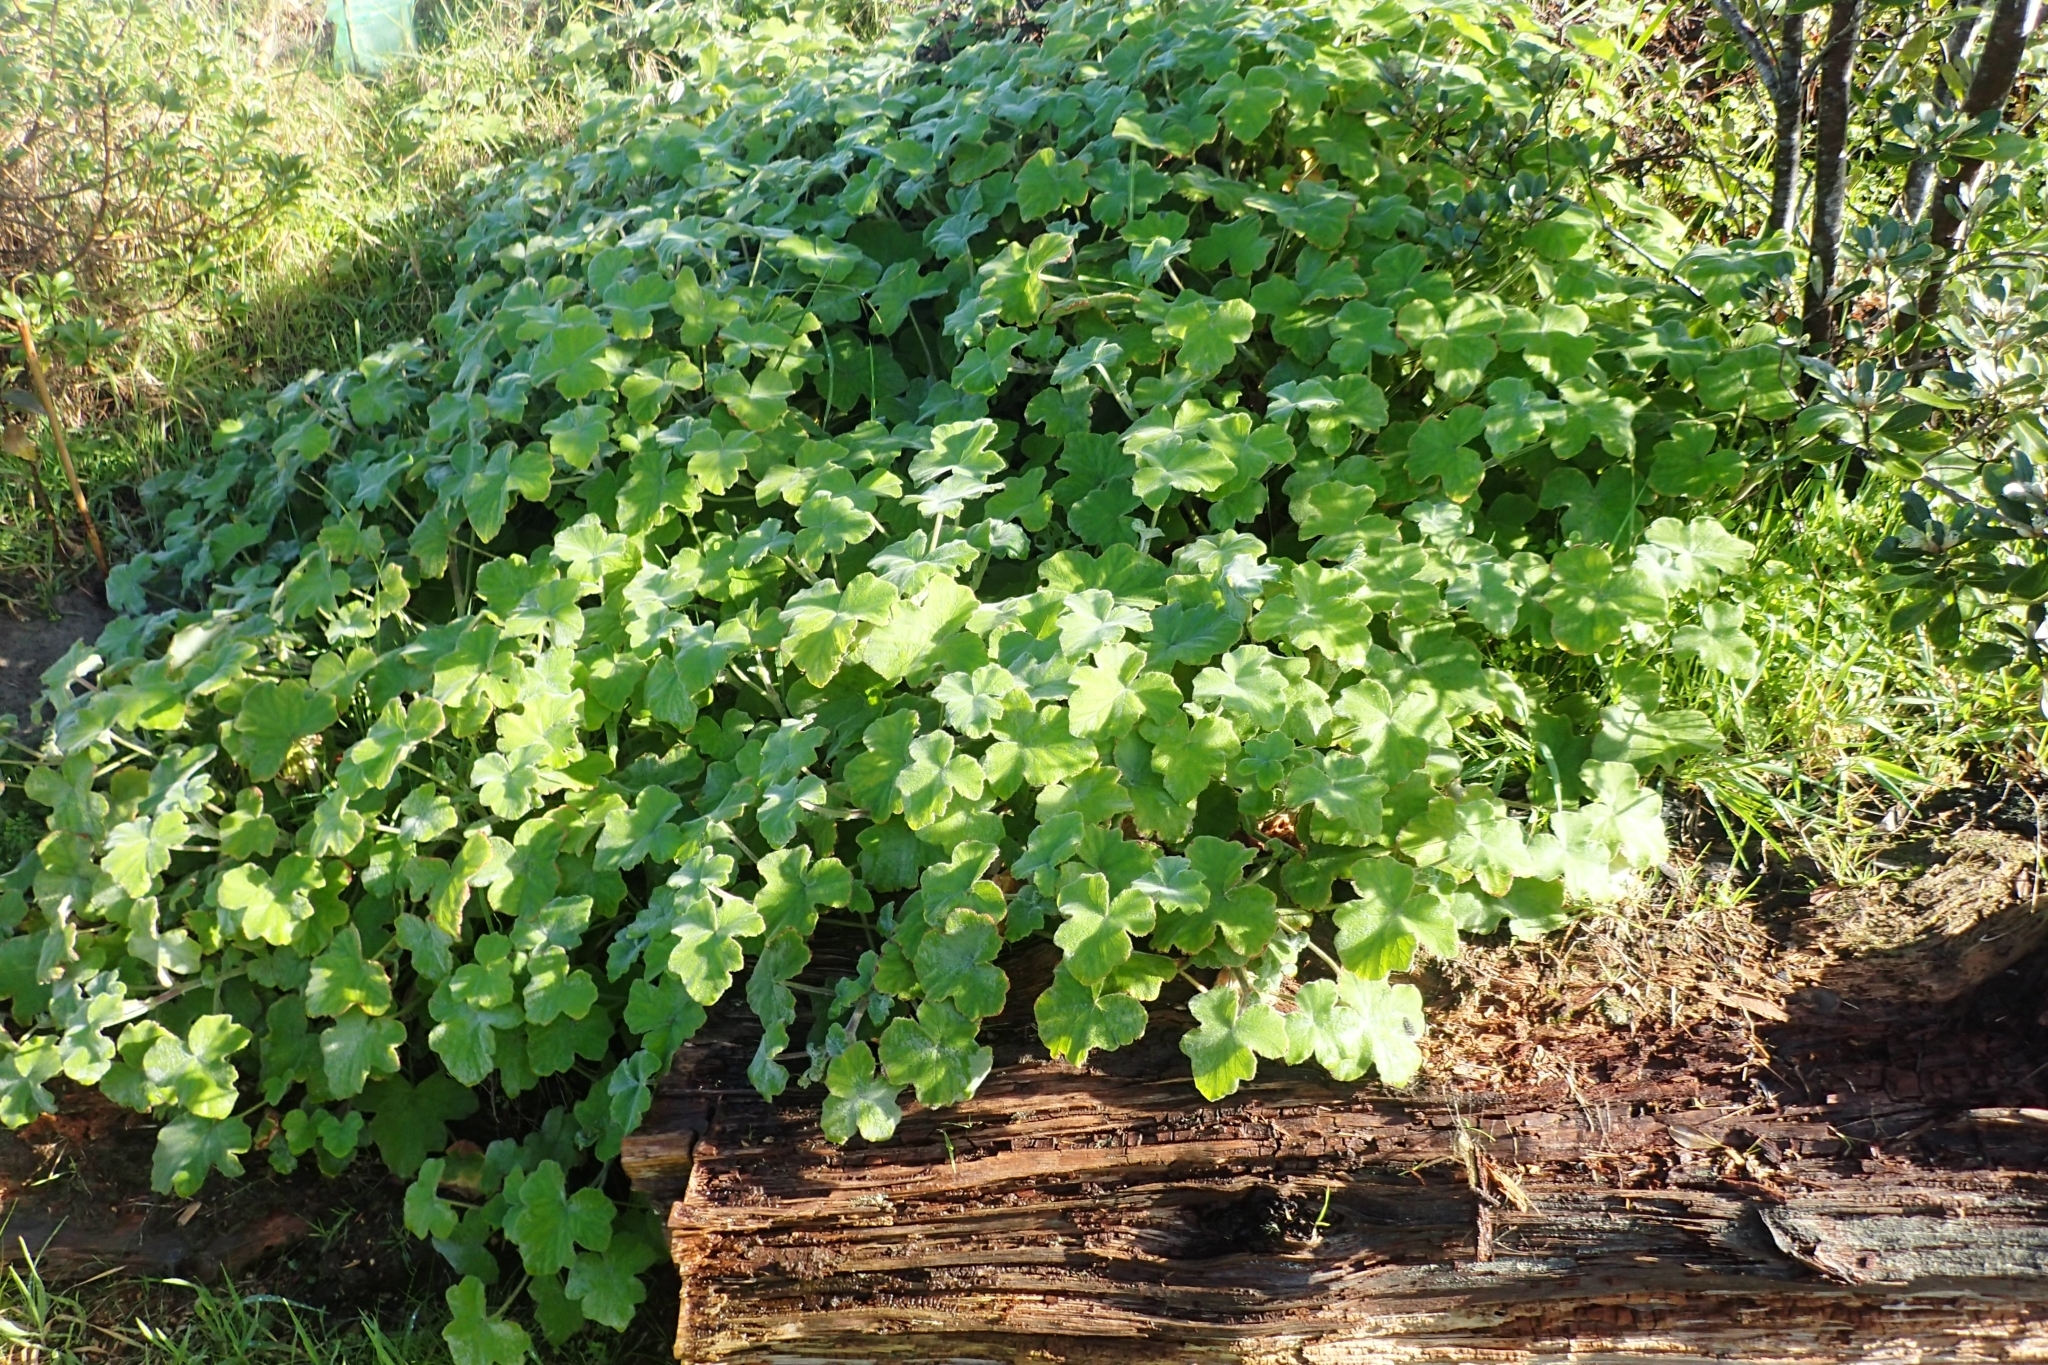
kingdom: Plantae
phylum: Tracheophyta
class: Magnoliopsida
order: Geraniales
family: Geraniaceae
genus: Pelargonium
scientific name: Pelargonium tomentosum
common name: Peppermint-scented geranium
